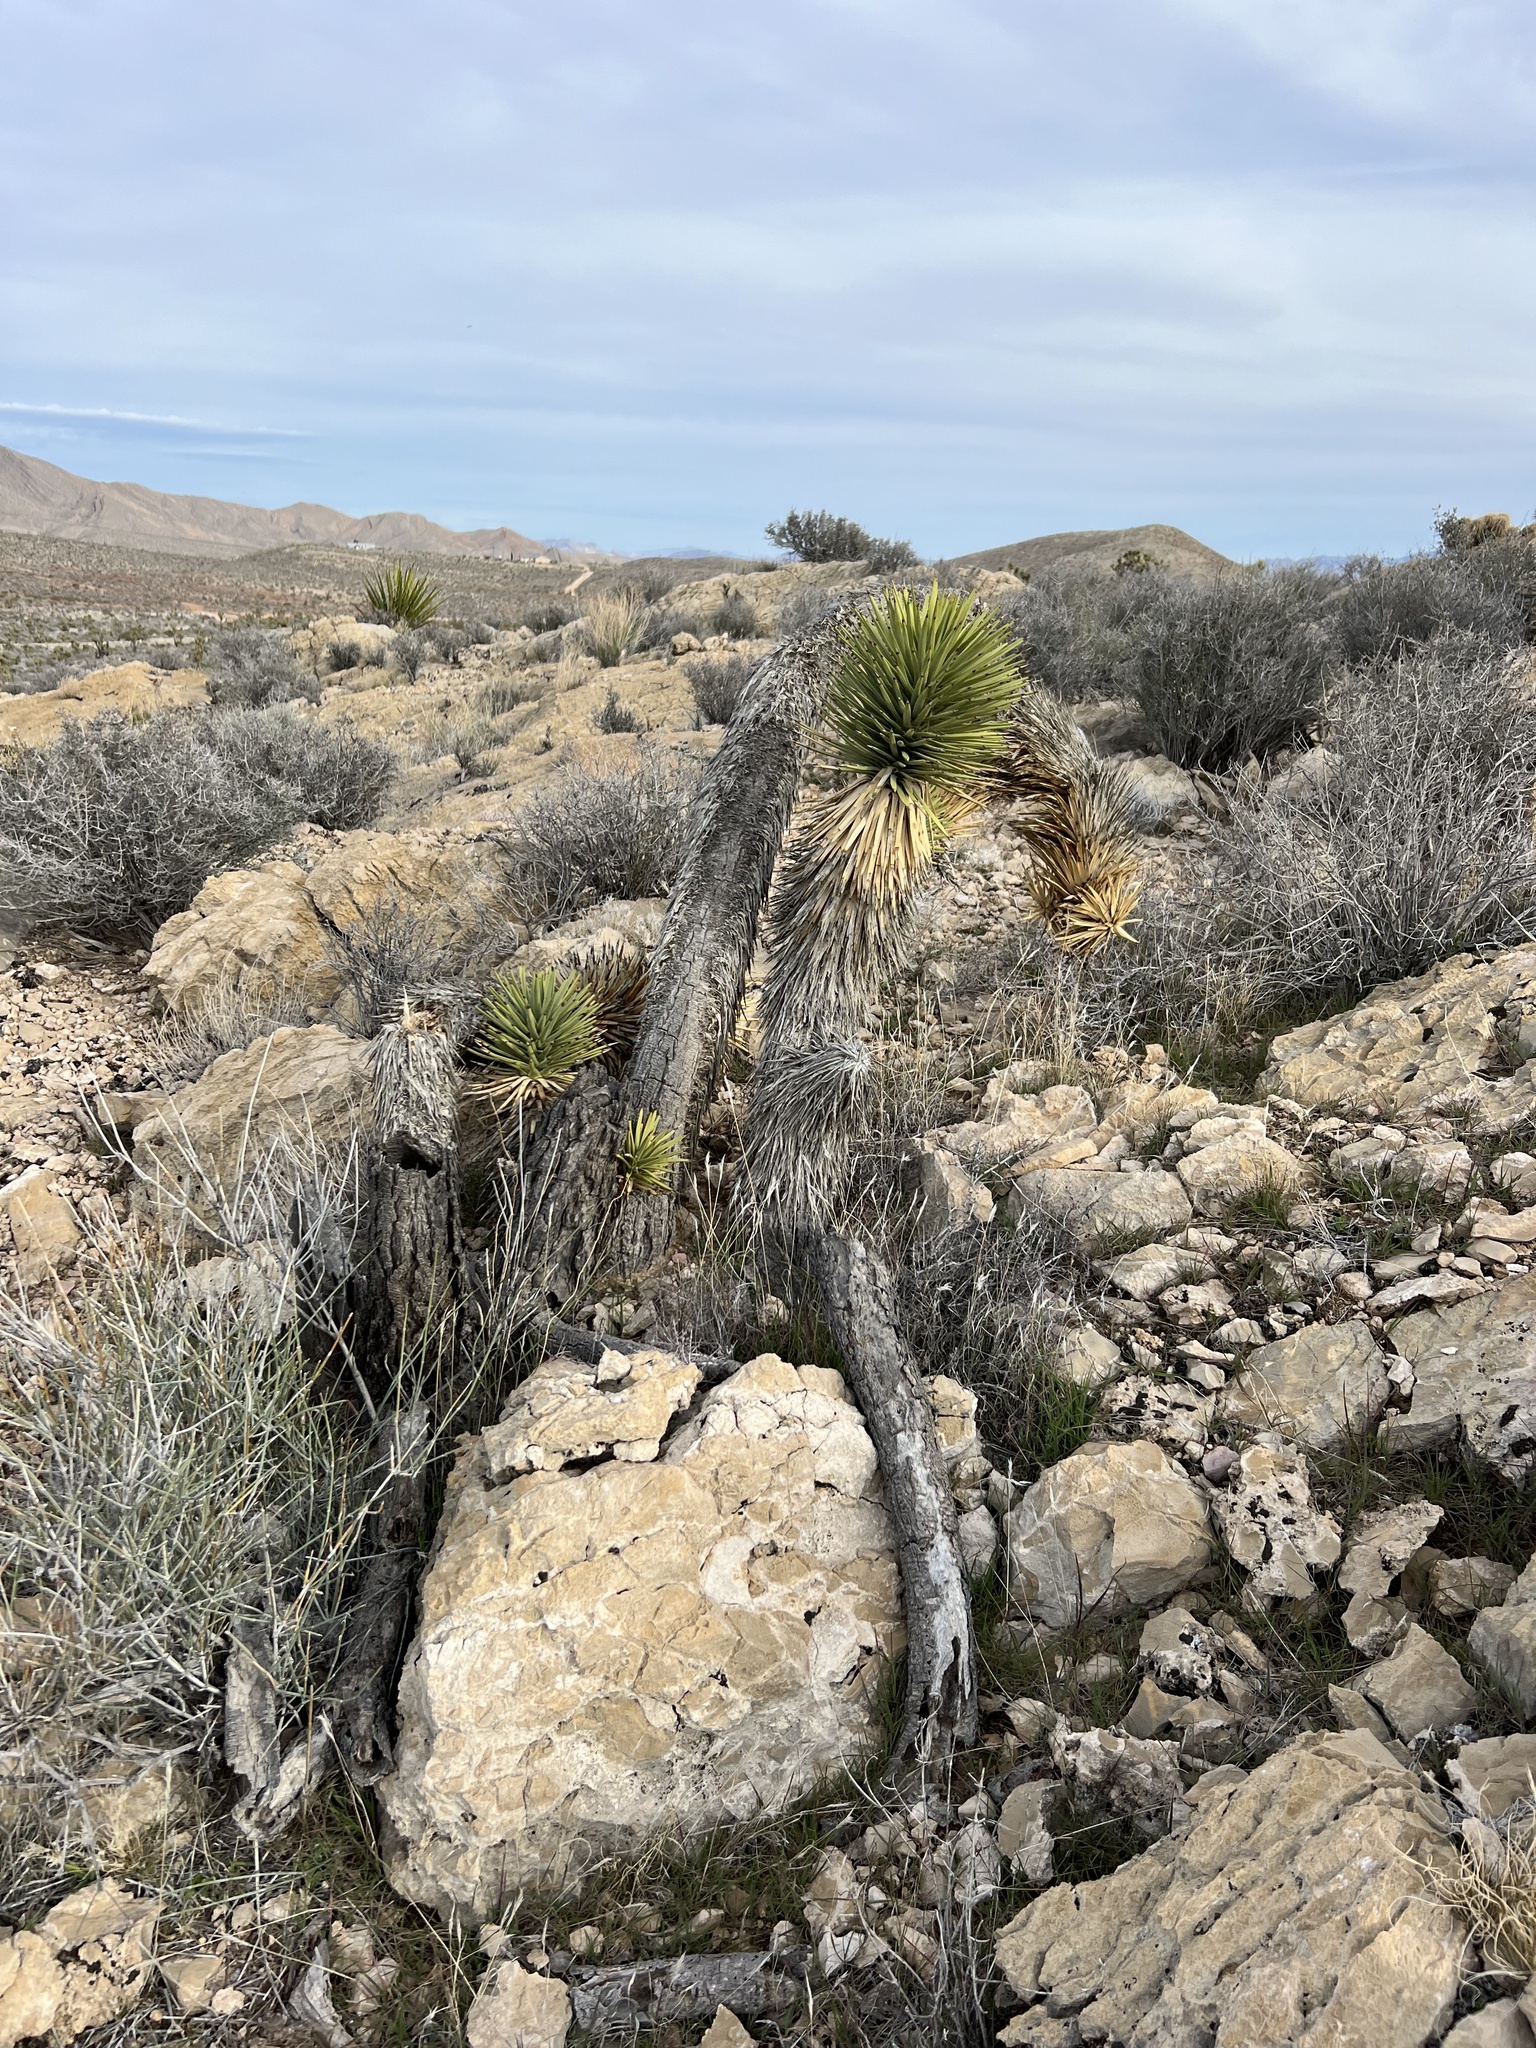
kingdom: Plantae
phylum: Tracheophyta
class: Liliopsida
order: Asparagales
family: Asparagaceae
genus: Yucca
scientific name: Yucca brevifolia
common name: Joshua tree
